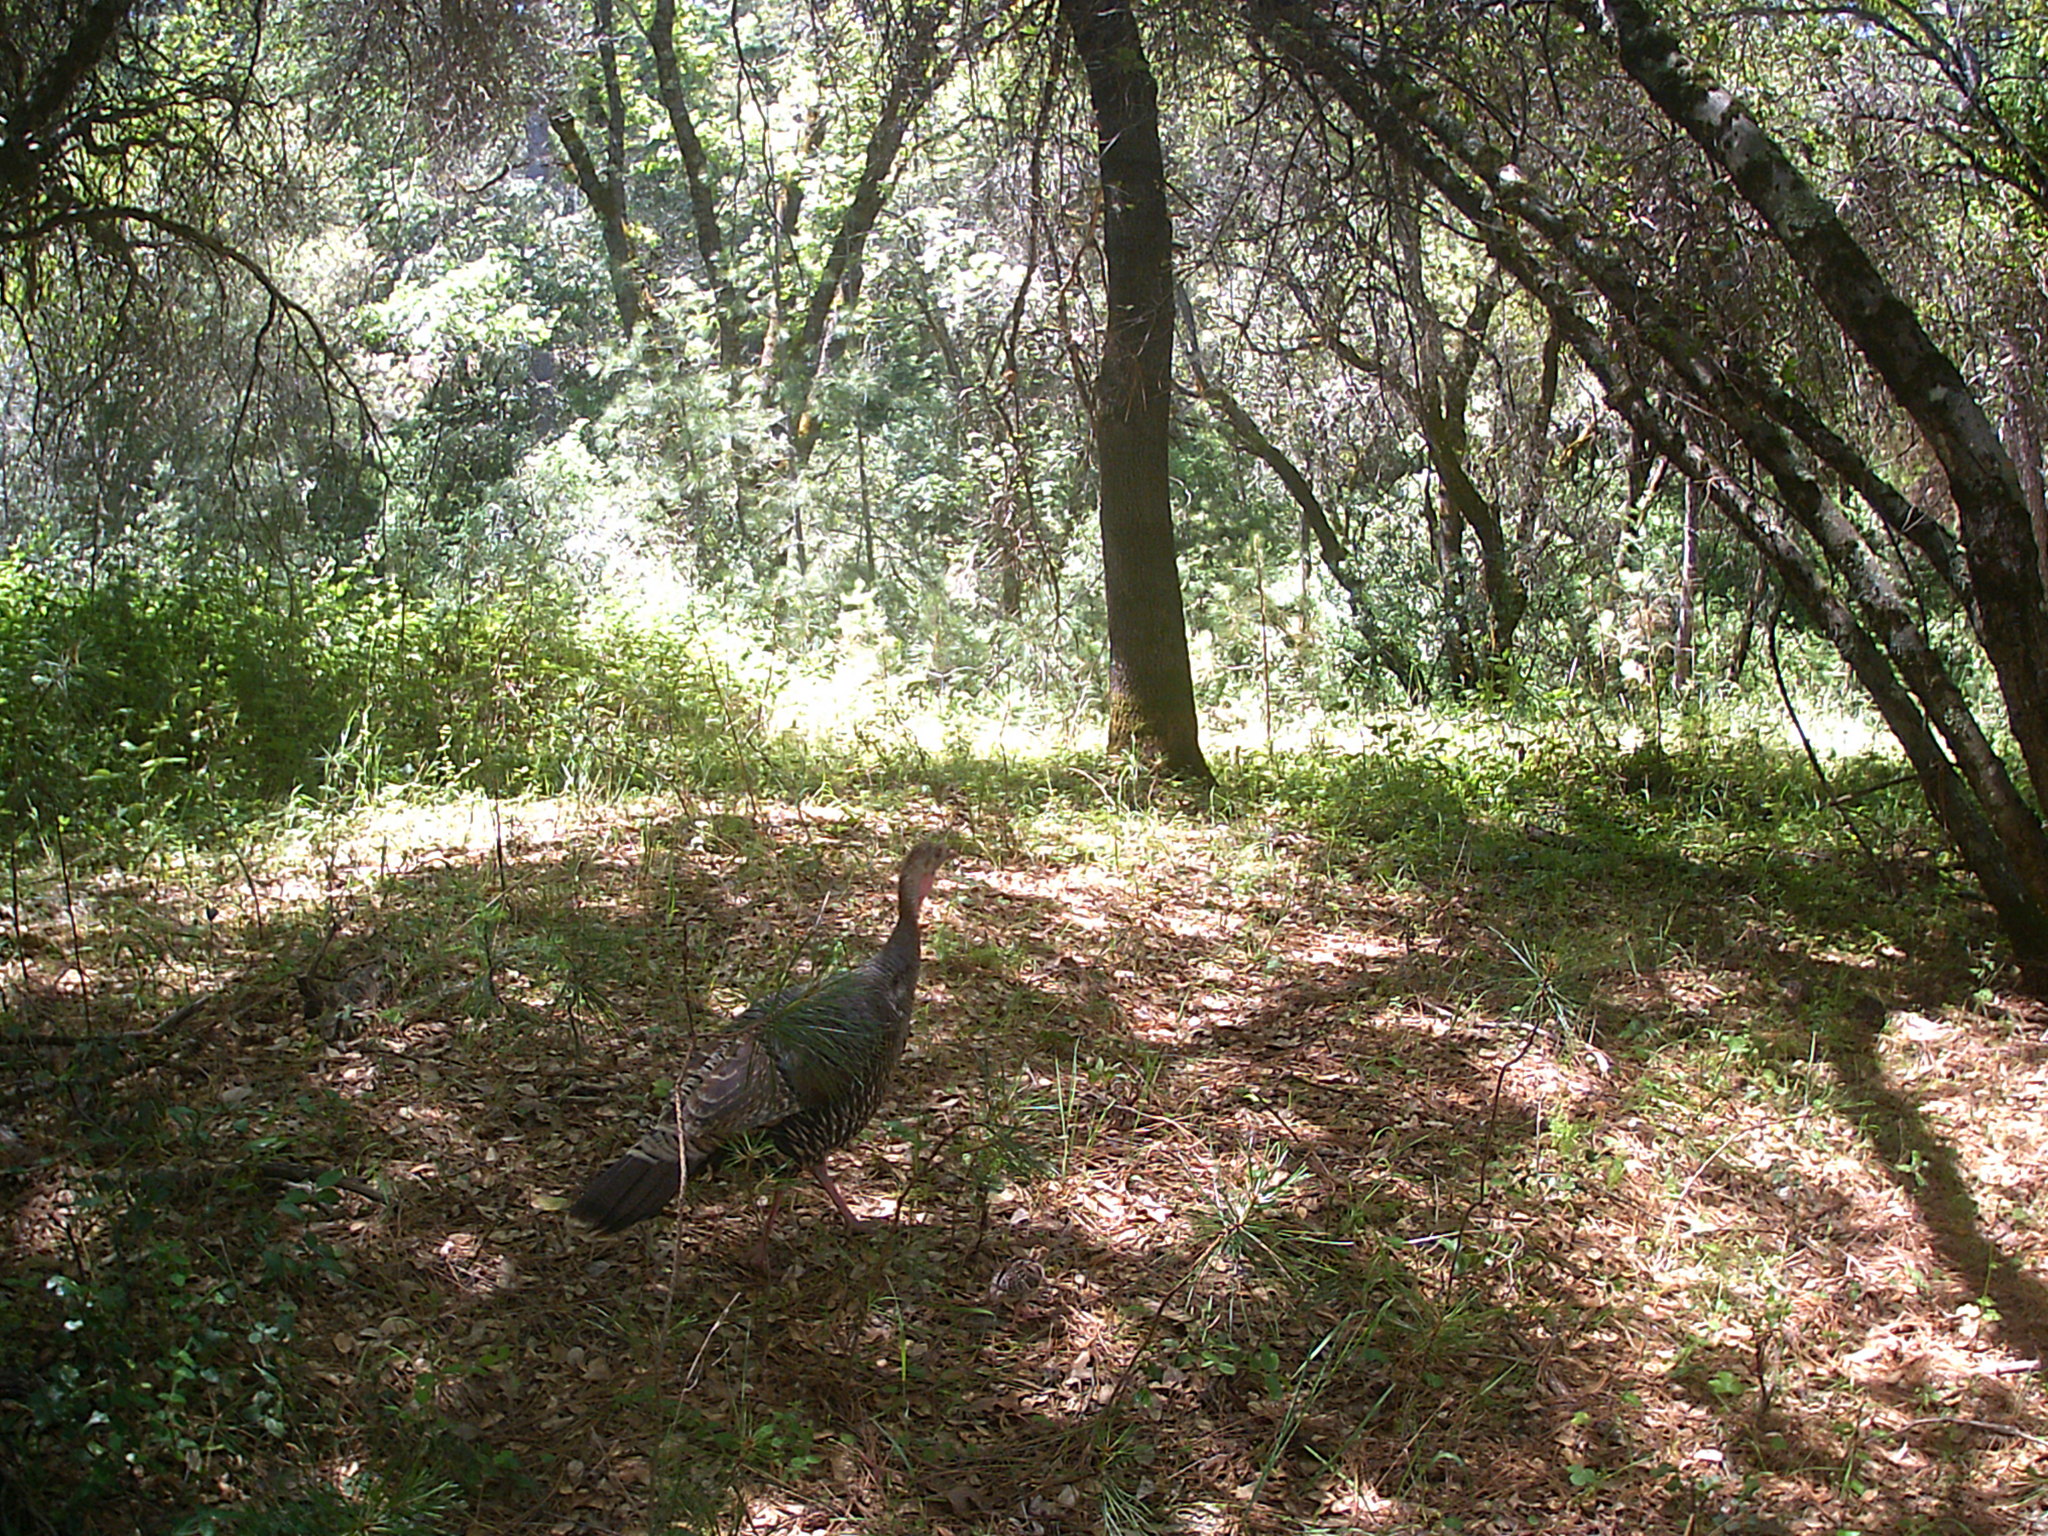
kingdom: Animalia
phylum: Chordata
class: Aves
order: Galliformes
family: Phasianidae
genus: Meleagris
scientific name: Meleagris gallopavo
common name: Wild turkey
